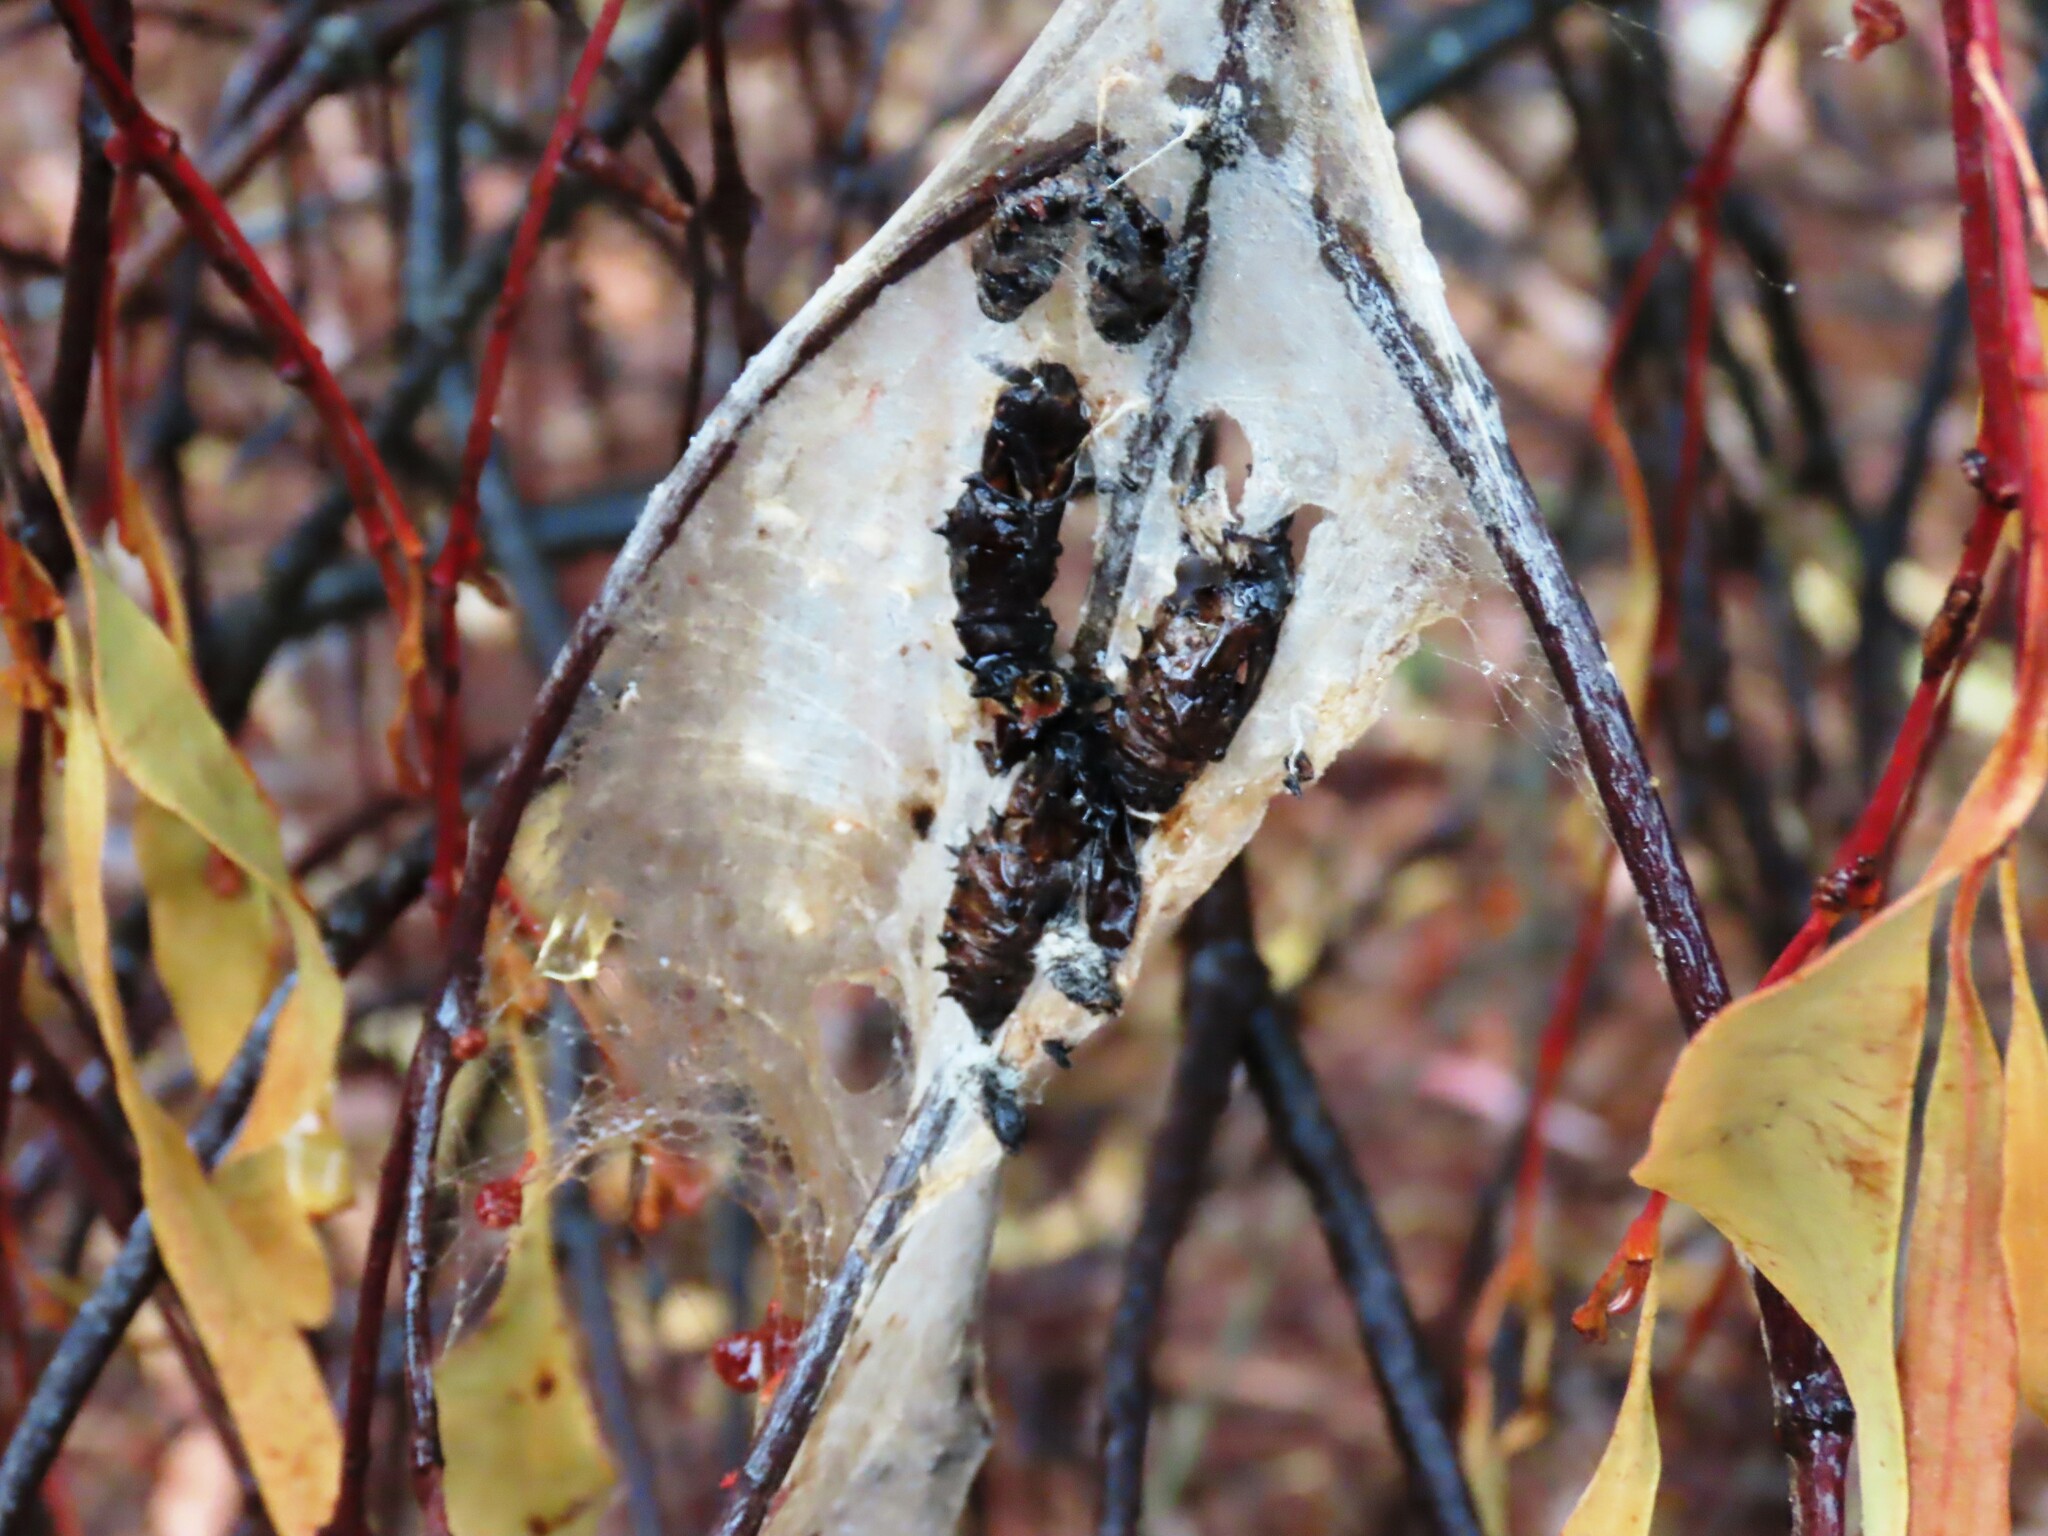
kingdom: Animalia
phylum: Arthropoda
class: Insecta
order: Lepidoptera
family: Pieridae
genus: Delias
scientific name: Delias harpalyce
